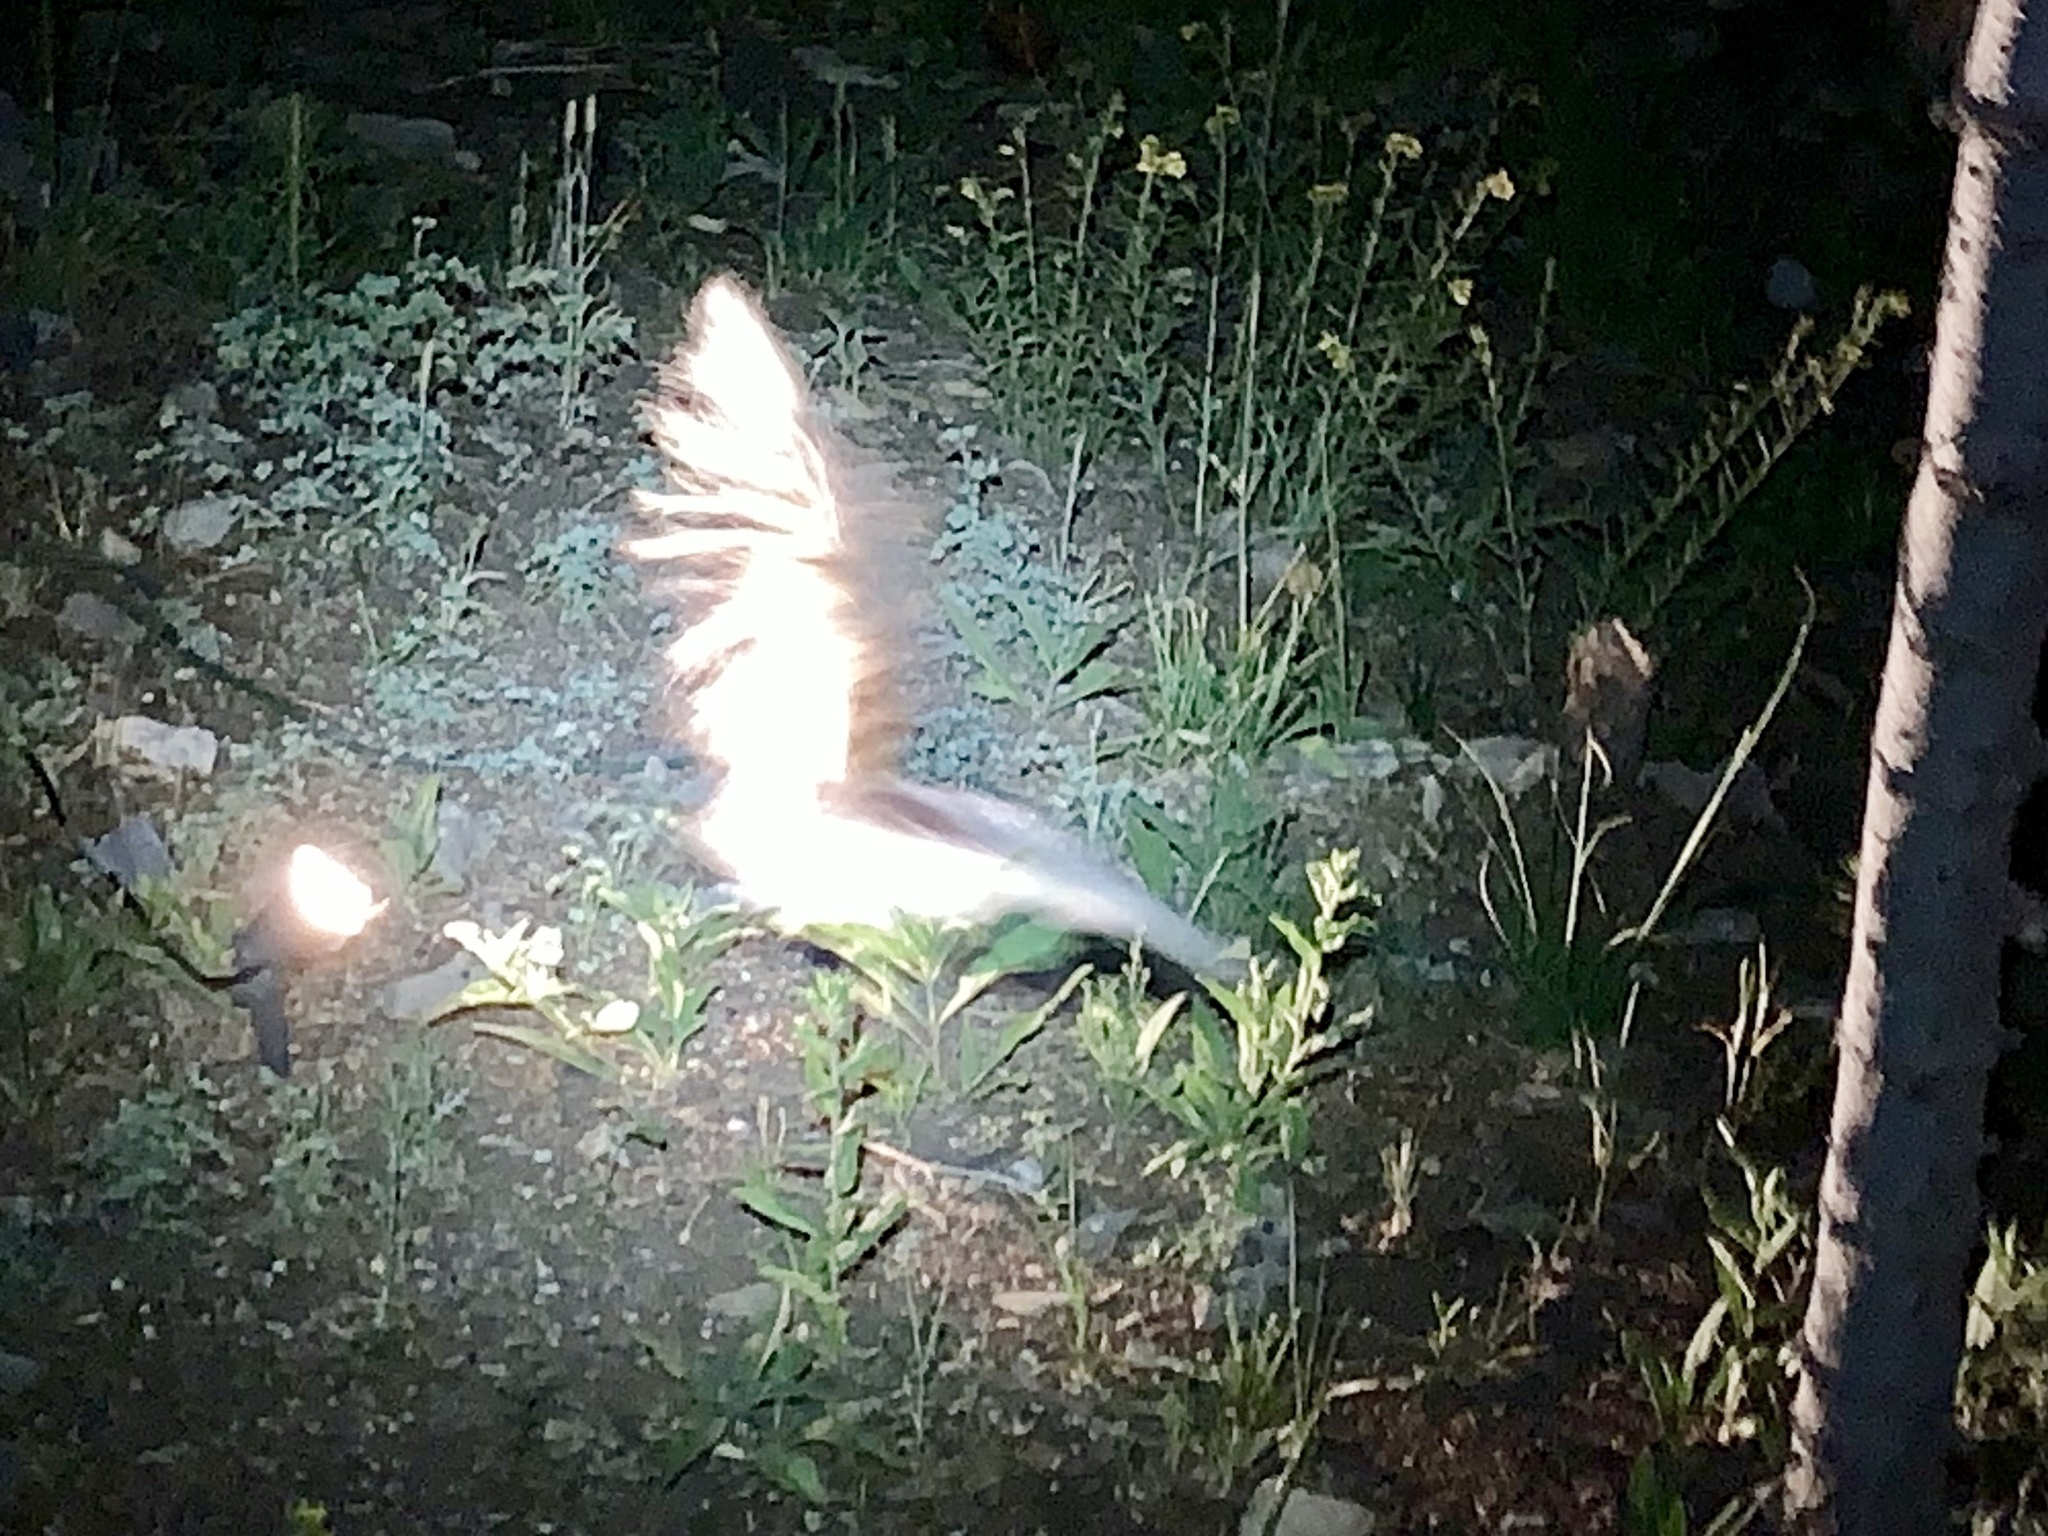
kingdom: Animalia
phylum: Chordata
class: Mammalia
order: Carnivora
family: Mephitidae
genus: Mephitis
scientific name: Mephitis mephitis
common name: Striped skunk
